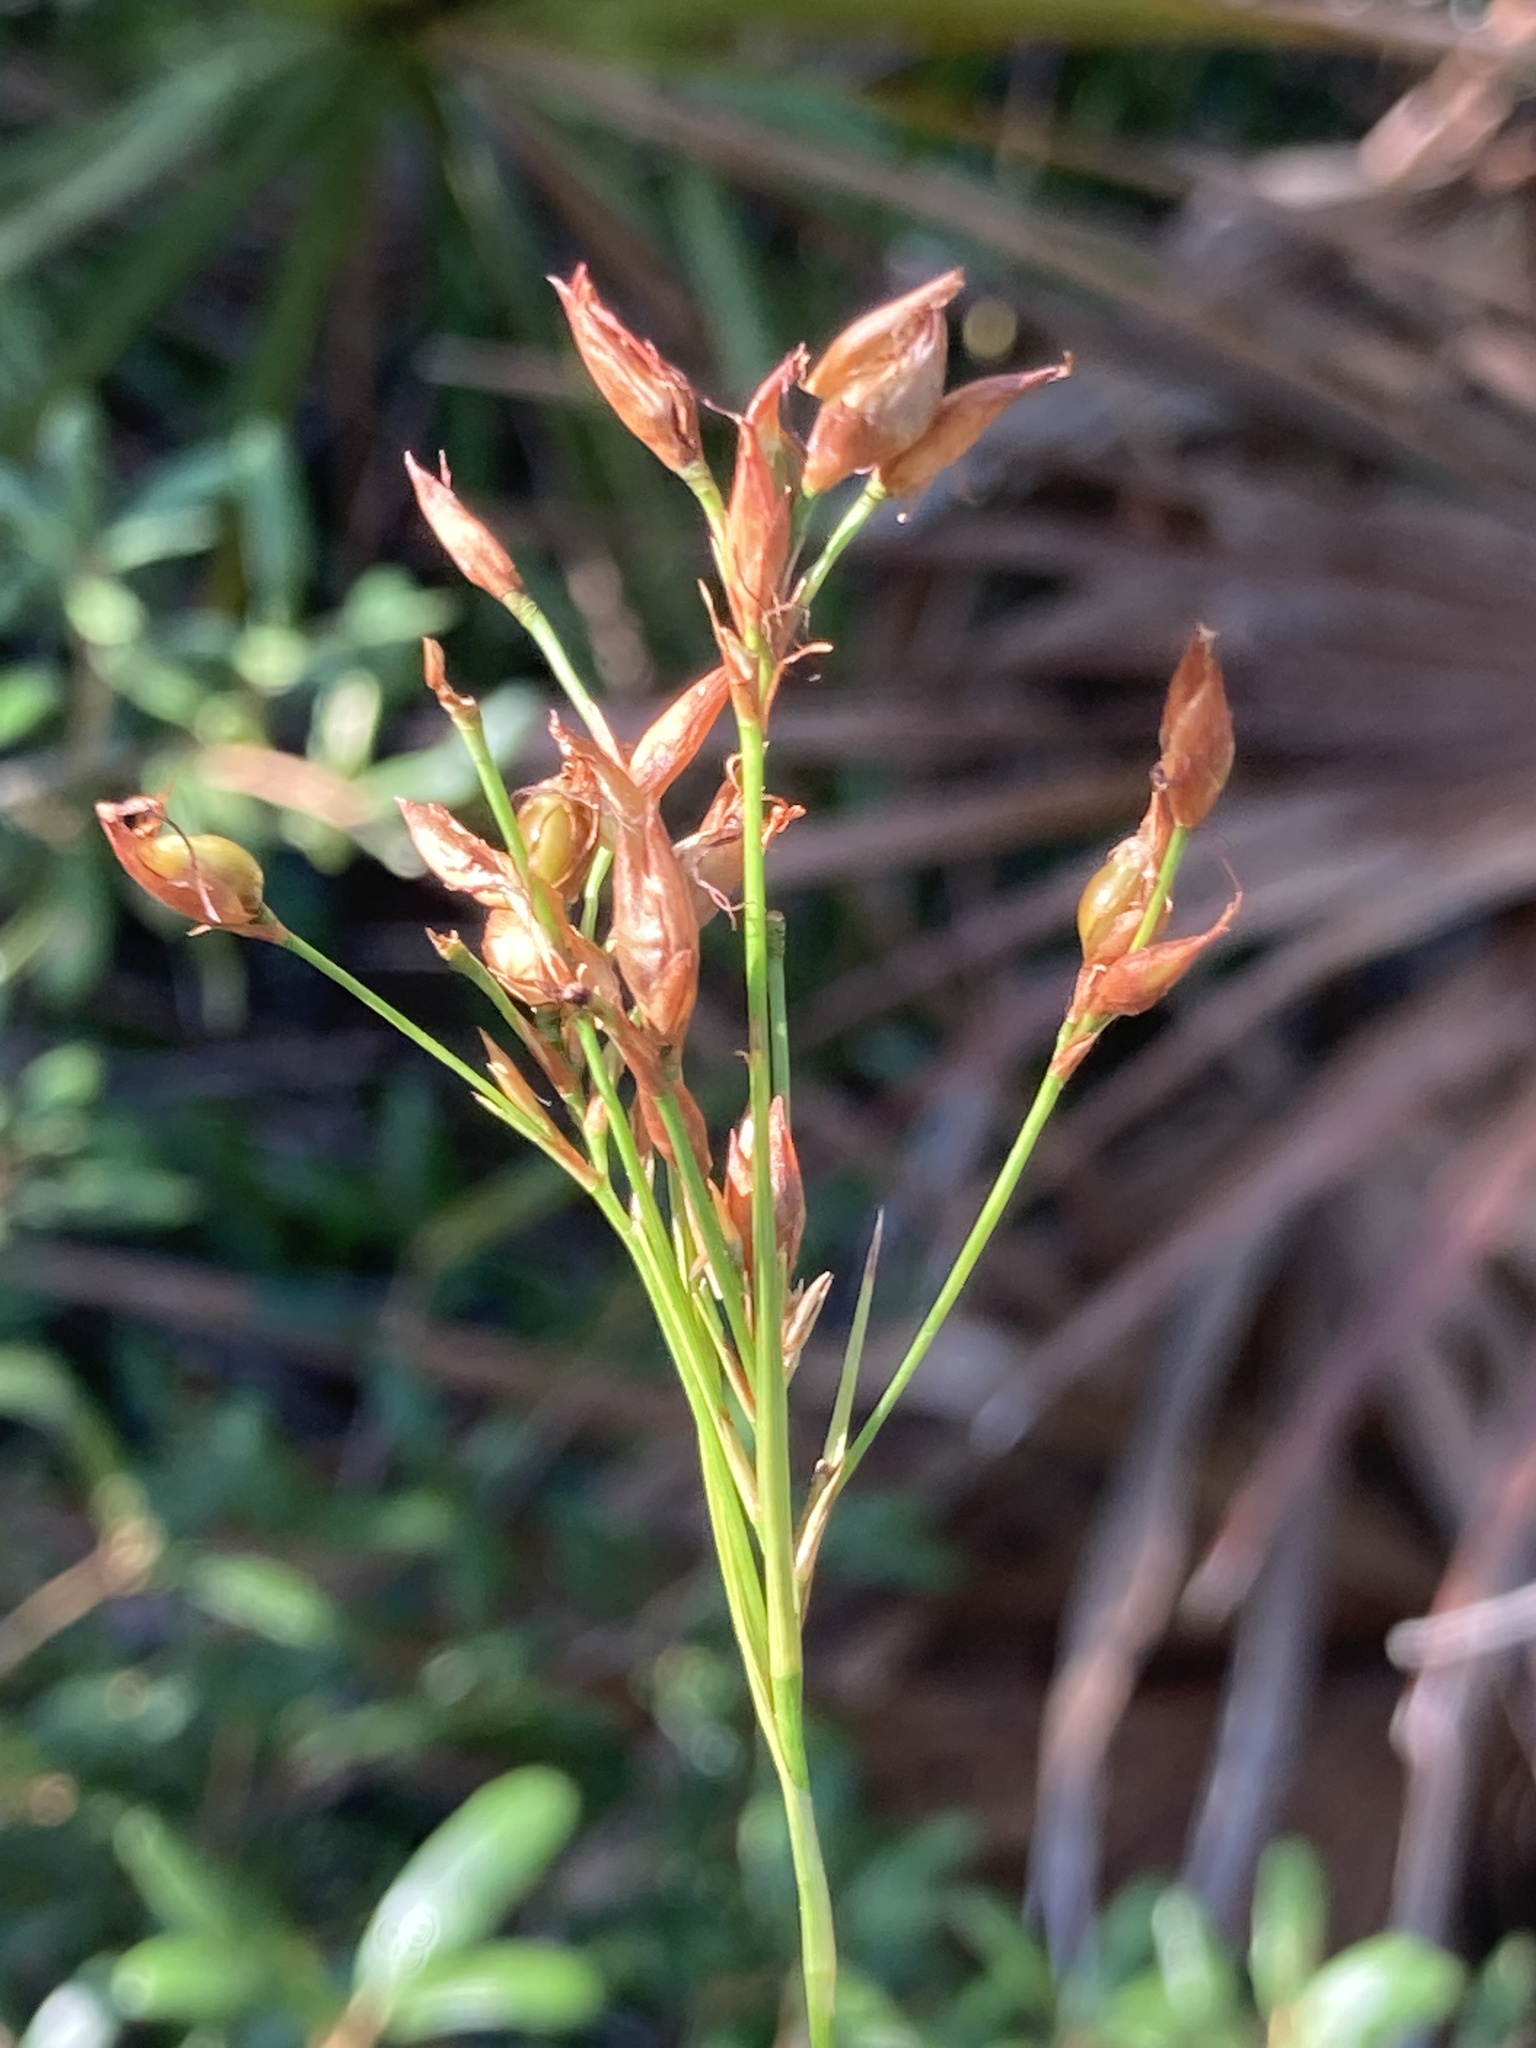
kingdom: Plantae
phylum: Tracheophyta
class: Liliopsida
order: Poales
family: Cyperaceae
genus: Rhynchospora
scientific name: Rhynchospora megalocarpa
